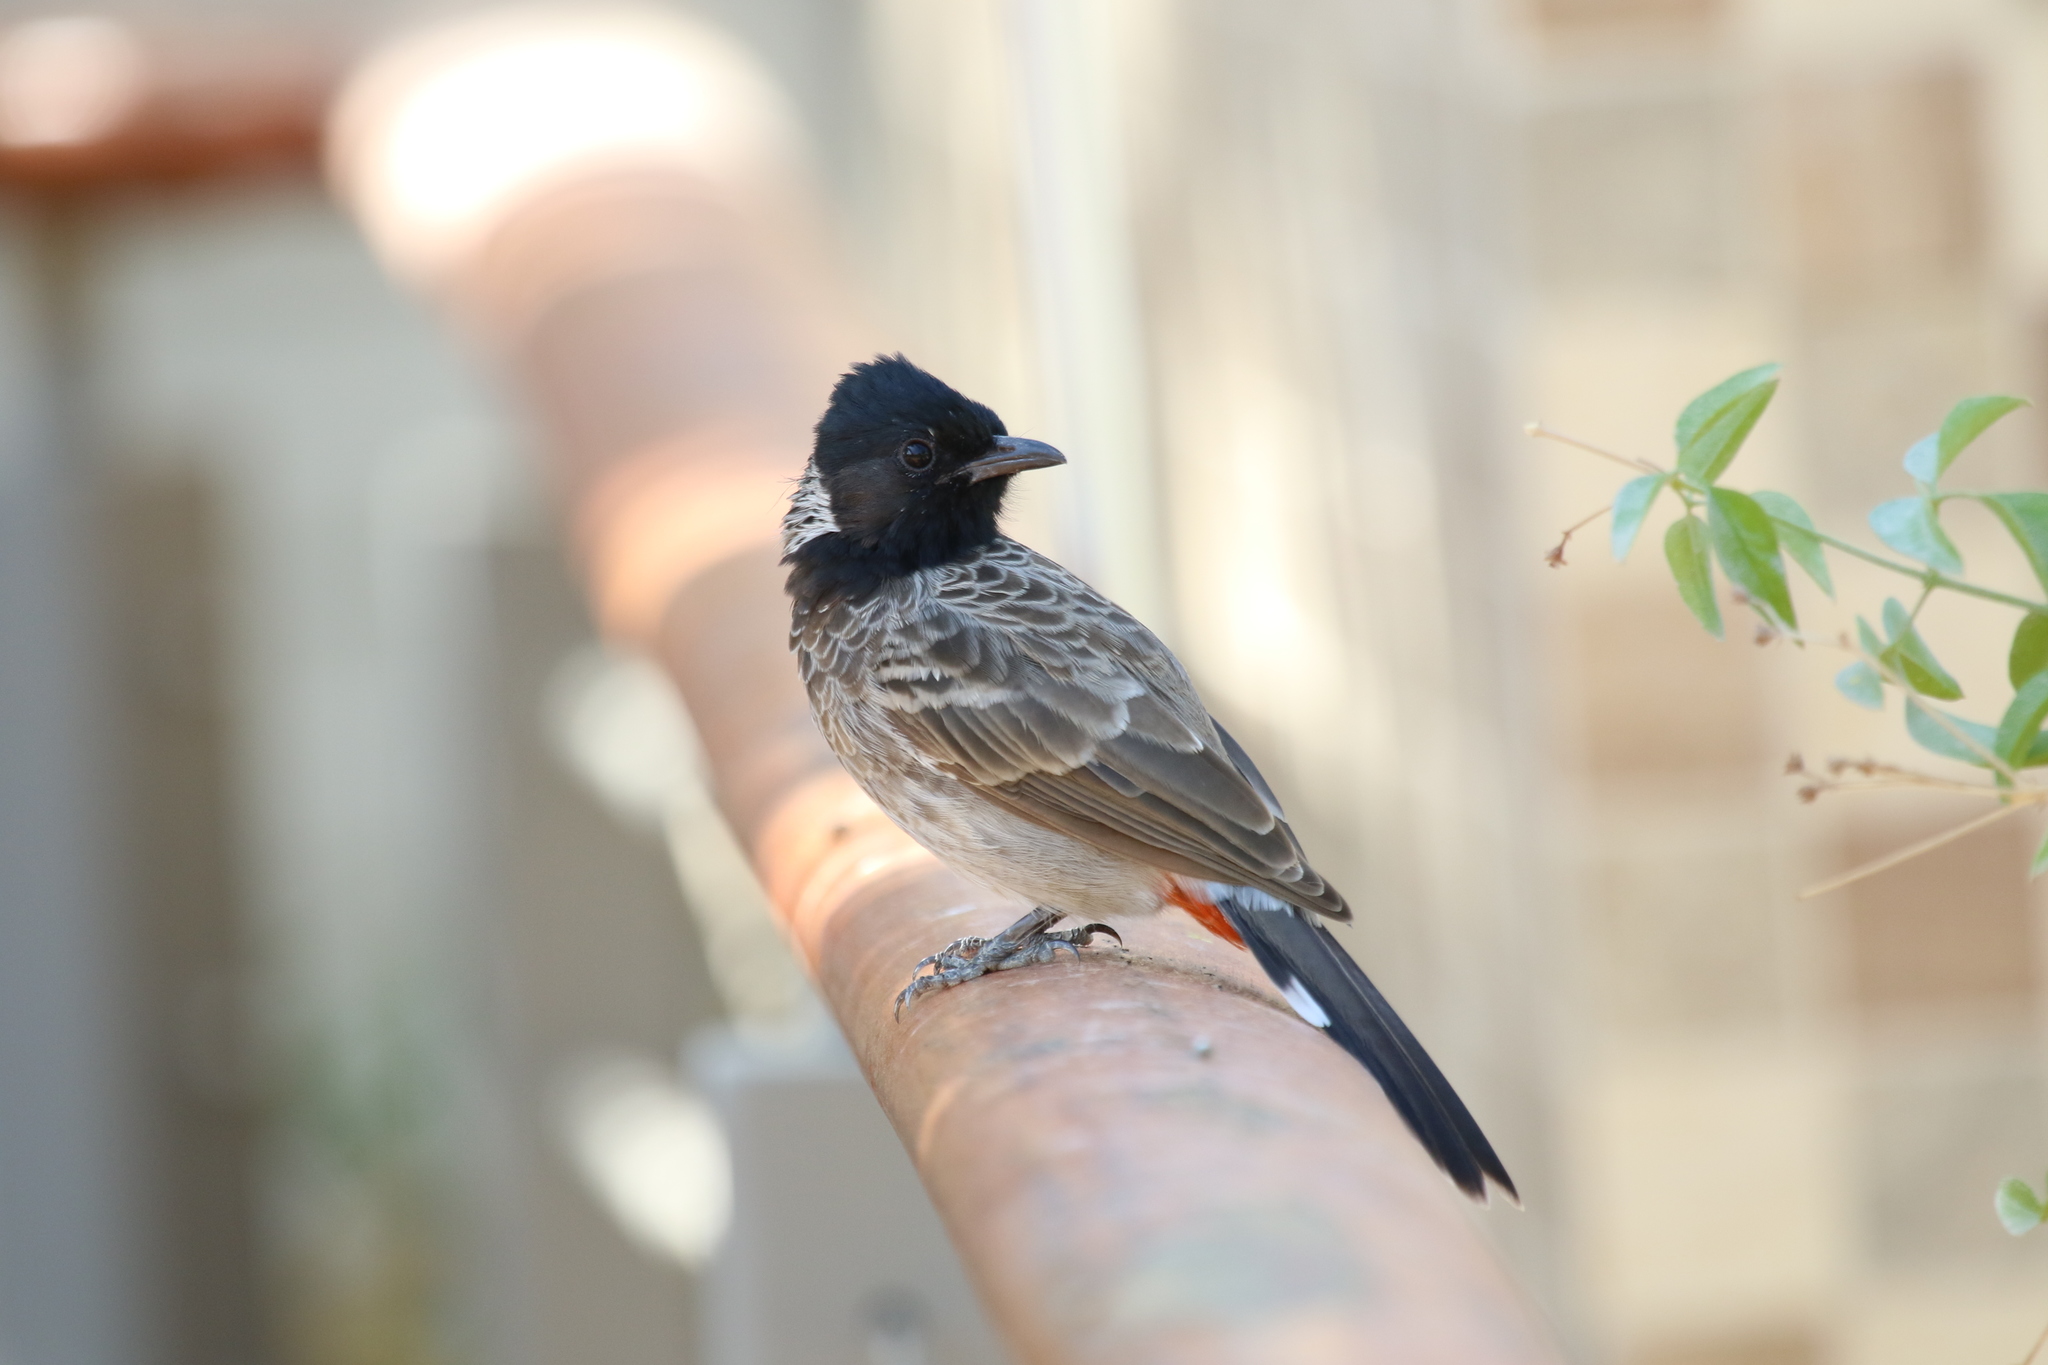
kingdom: Animalia
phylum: Chordata
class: Aves
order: Passeriformes
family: Pycnonotidae
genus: Pycnonotus
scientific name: Pycnonotus cafer
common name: Red-vented bulbul
